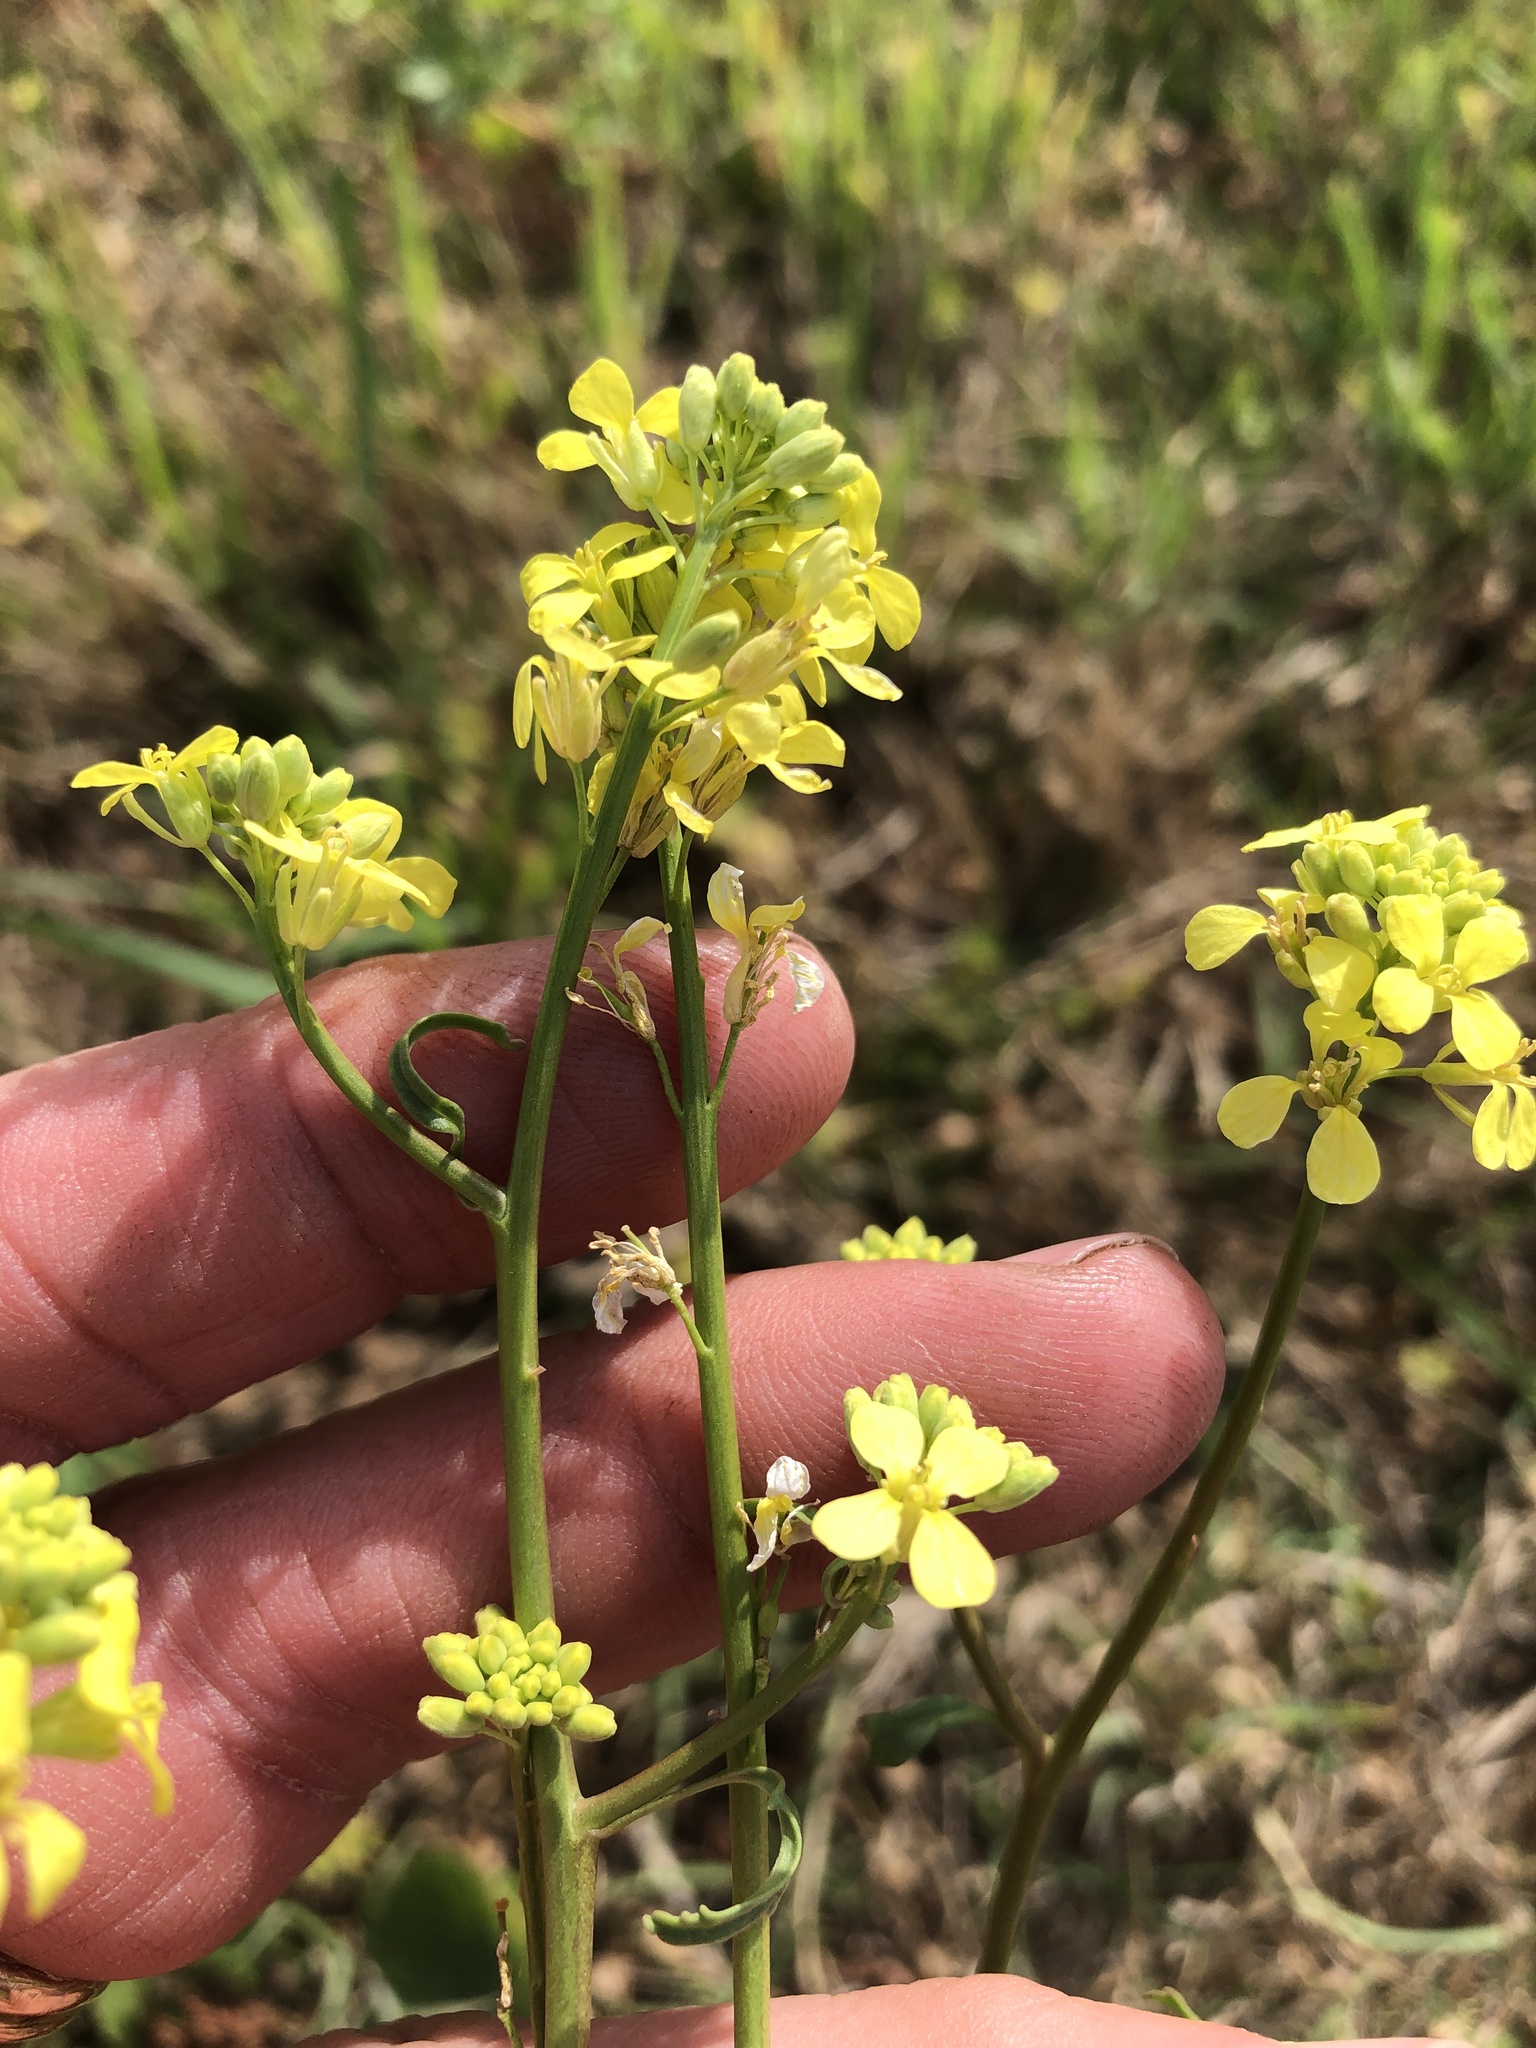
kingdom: Plantae
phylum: Tracheophyta
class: Magnoliopsida
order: Brassicales
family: Brassicaceae
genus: Rapistrum
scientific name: Rapistrum rugosum
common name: Annual bastardcabbage
